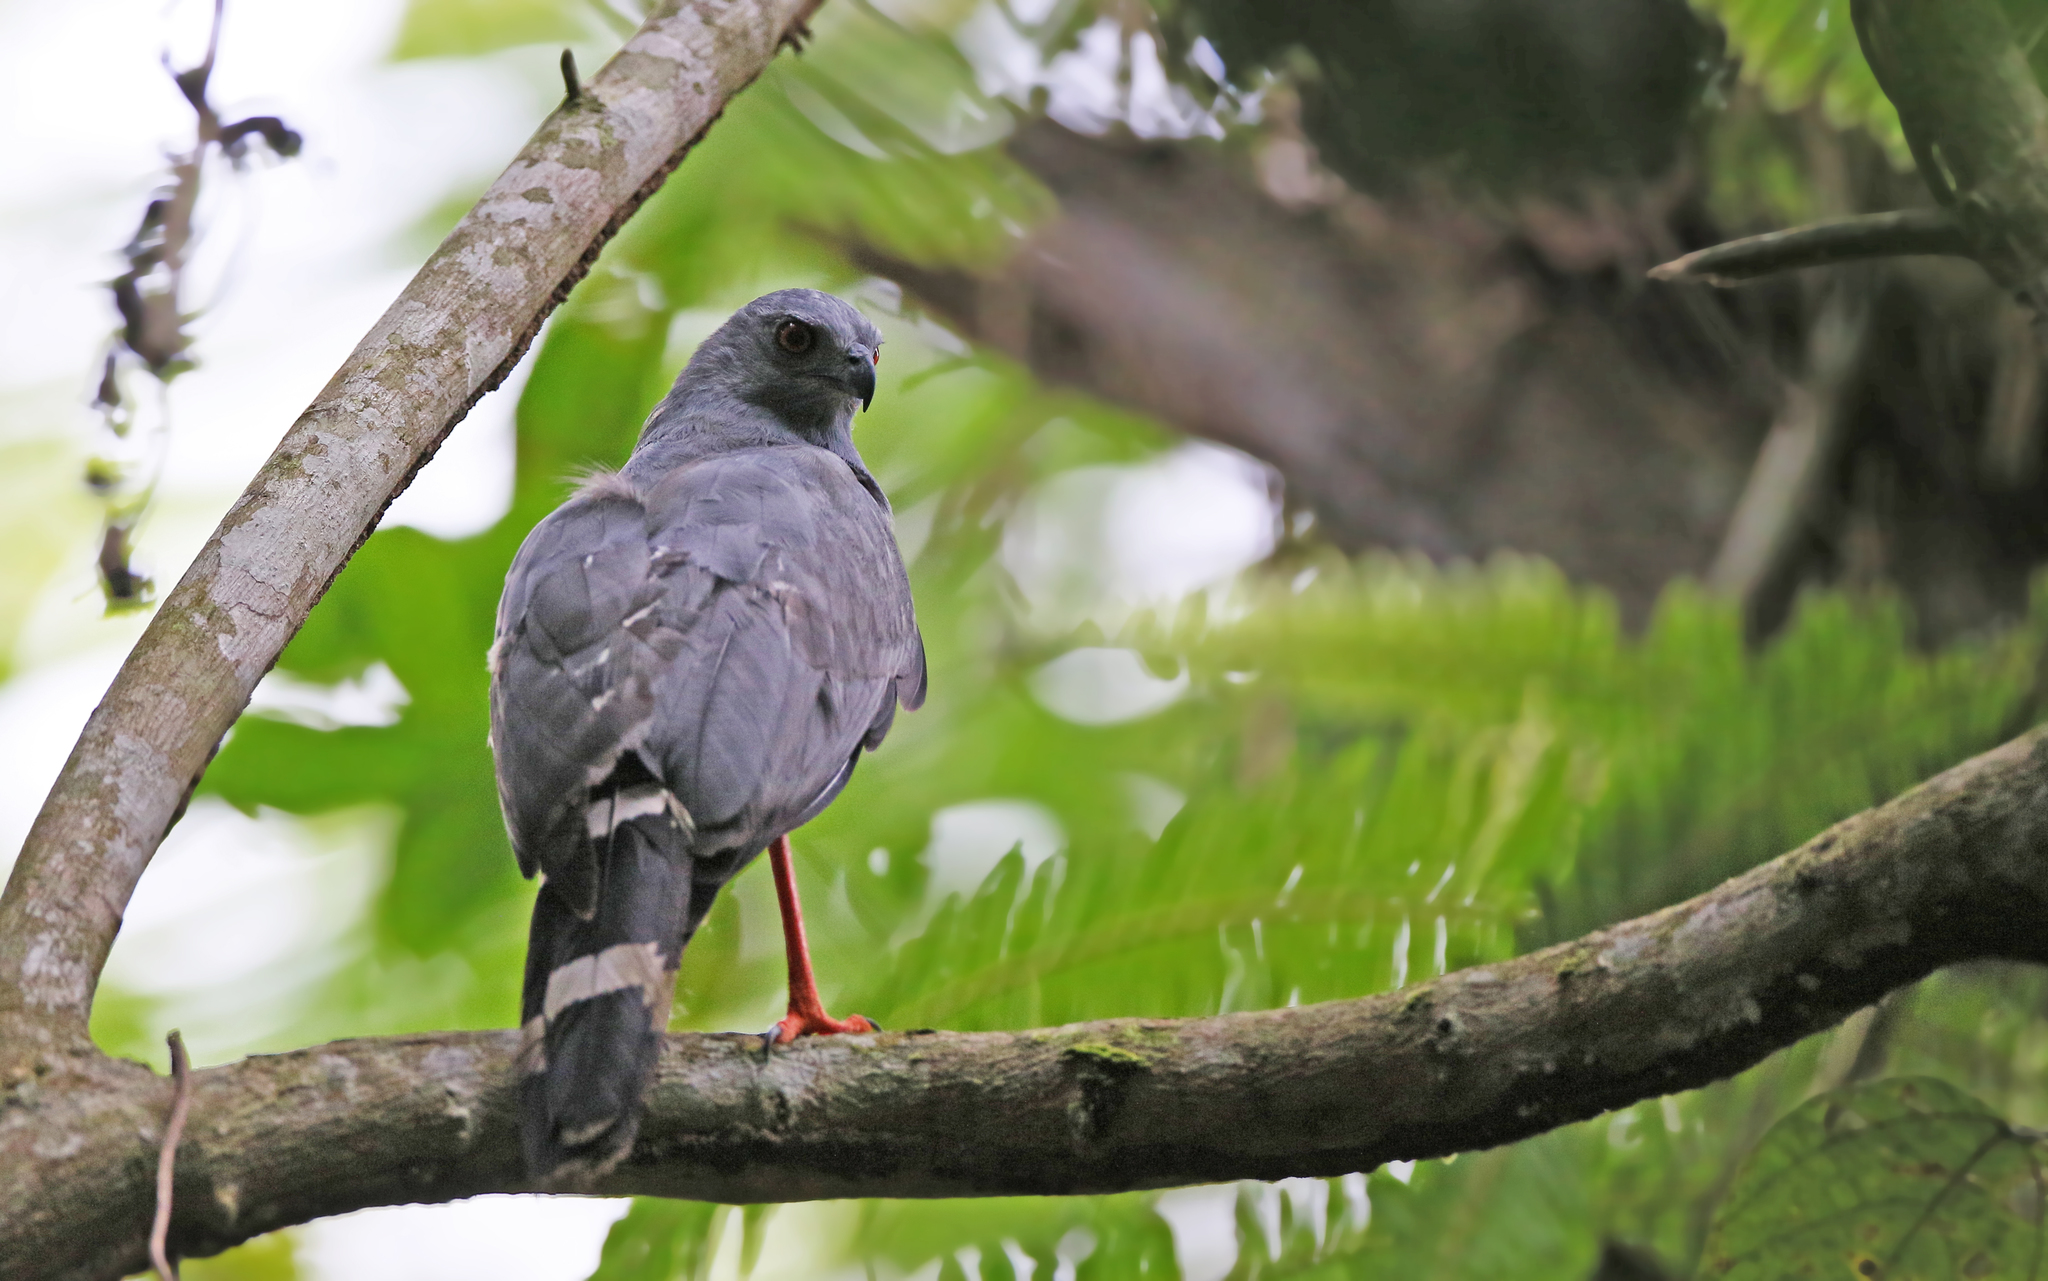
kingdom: Animalia
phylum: Chordata
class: Aves
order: Accipitriformes
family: Accipitridae
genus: Geranospiza
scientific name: Geranospiza caerulescens
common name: Crane hawk
